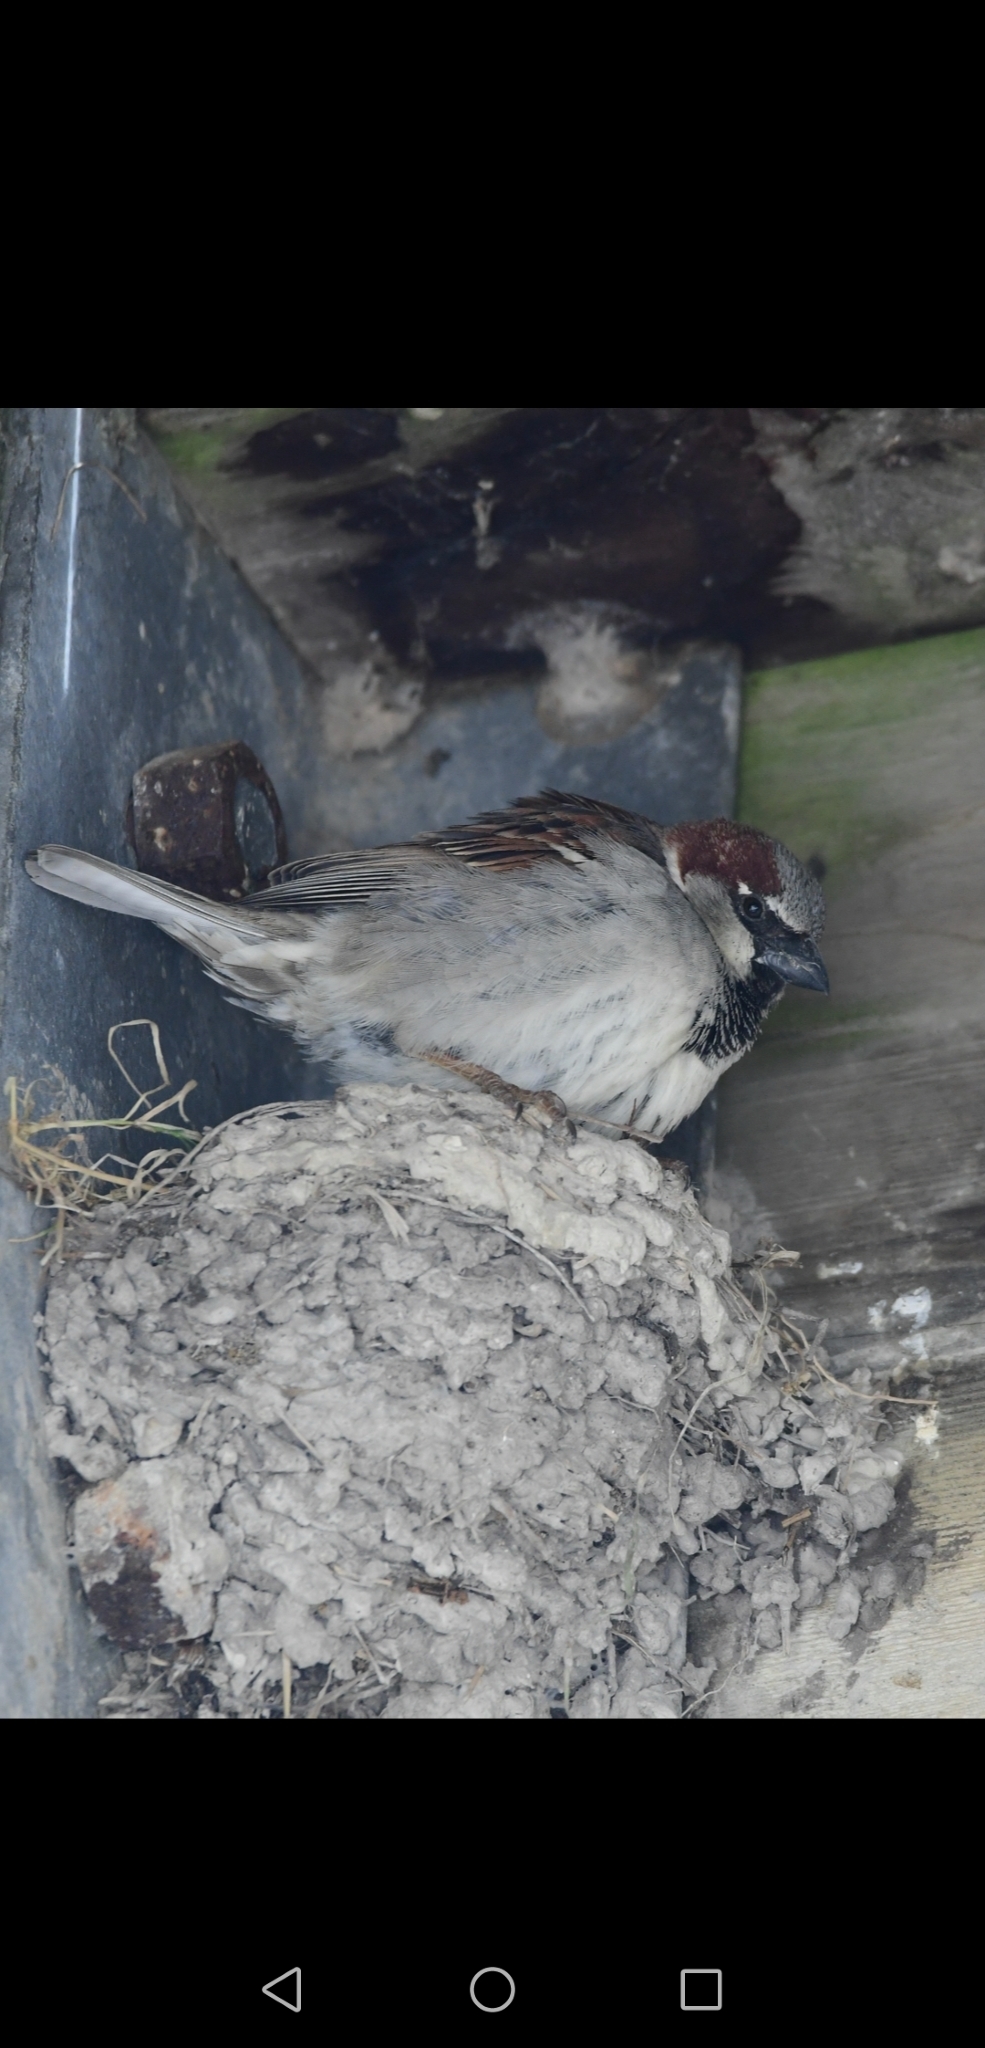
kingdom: Animalia
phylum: Chordata
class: Aves
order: Passeriformes
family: Passeridae
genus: Passer
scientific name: Passer domesticus
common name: House sparrow
